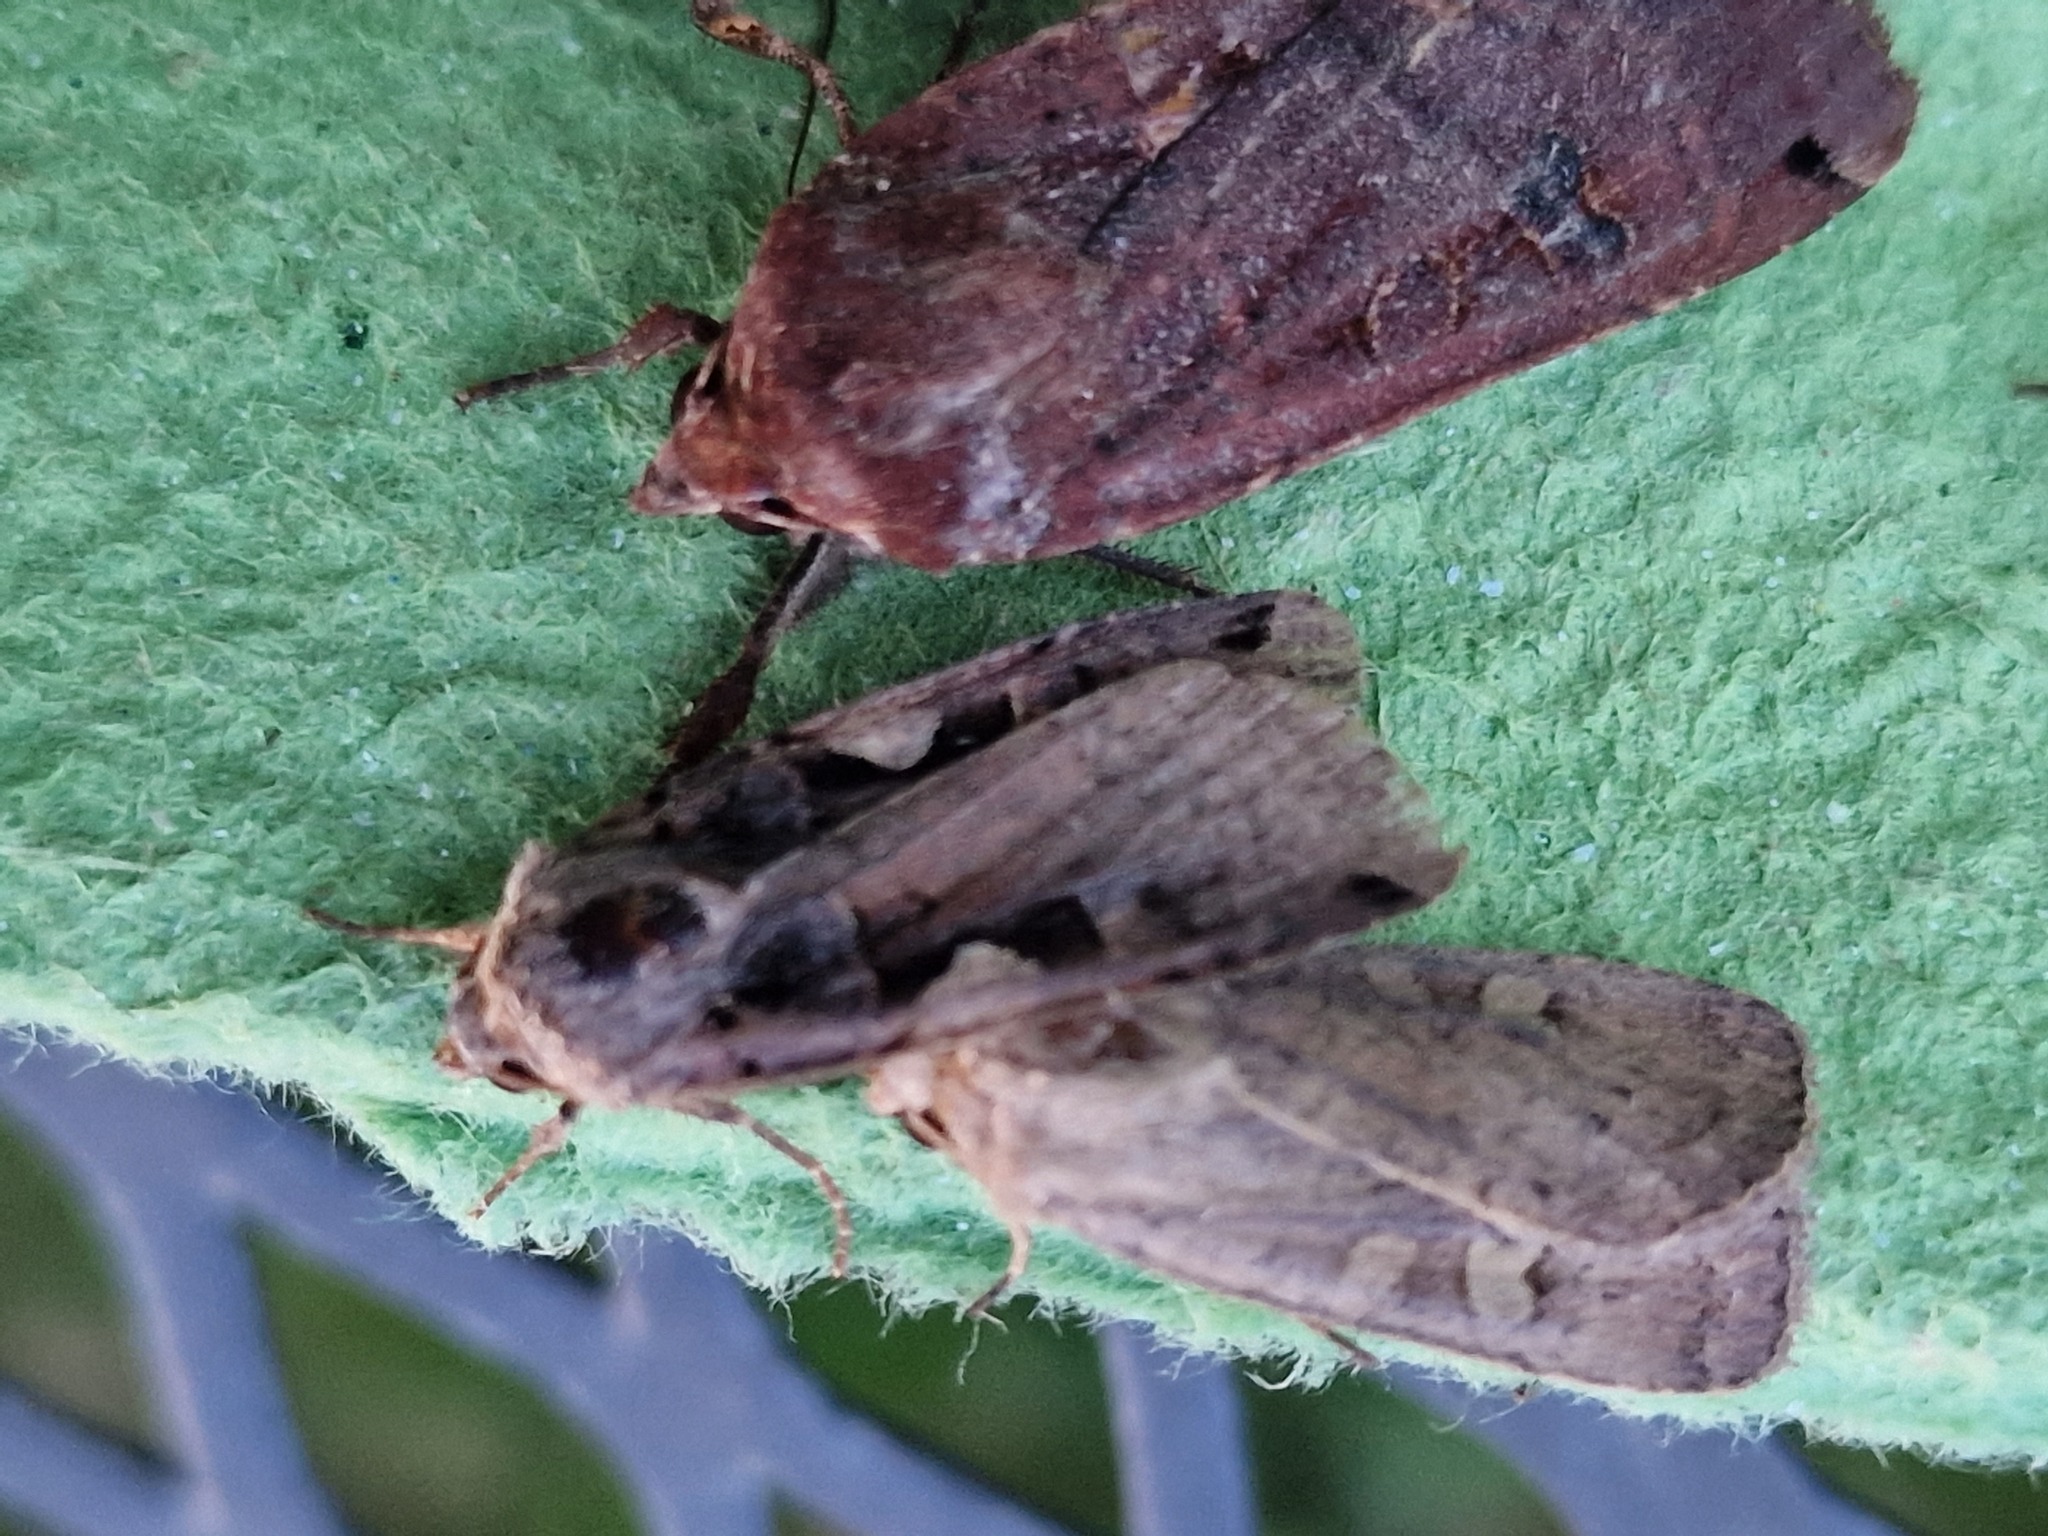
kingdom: Animalia
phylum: Arthropoda
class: Insecta
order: Lepidoptera
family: Noctuidae
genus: Xestia
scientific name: Xestia c-nigrum
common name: Setaceous hebrew character
